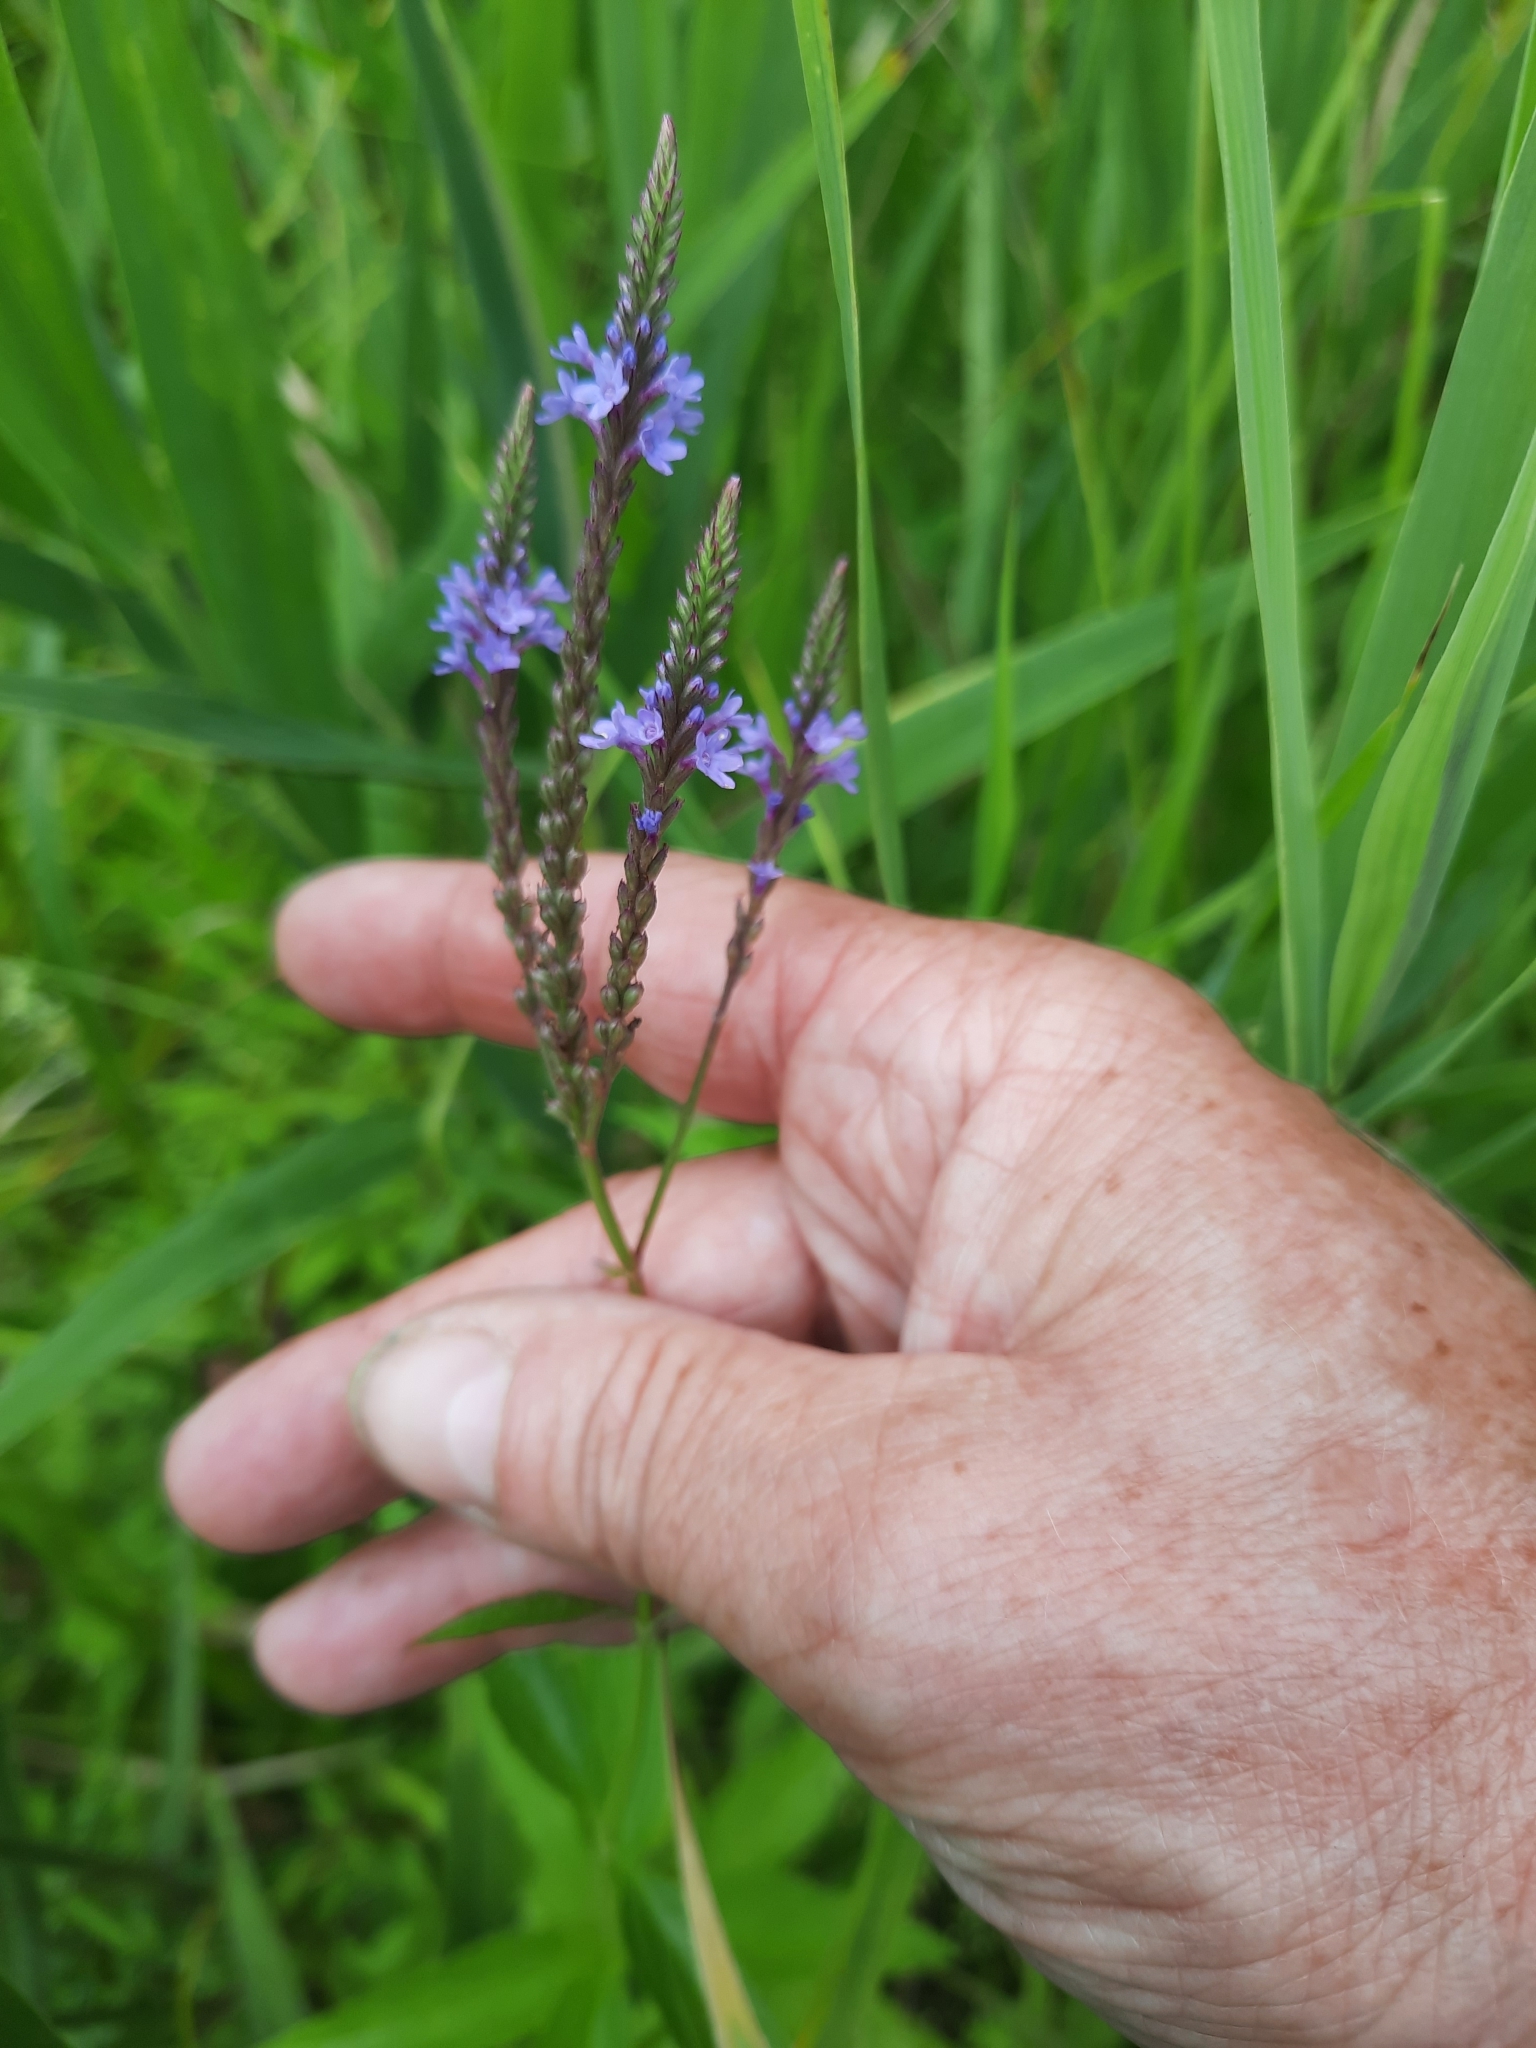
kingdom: Plantae
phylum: Tracheophyta
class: Magnoliopsida
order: Lamiales
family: Verbenaceae
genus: Verbena
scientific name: Verbena hastata
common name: American blue vervain
